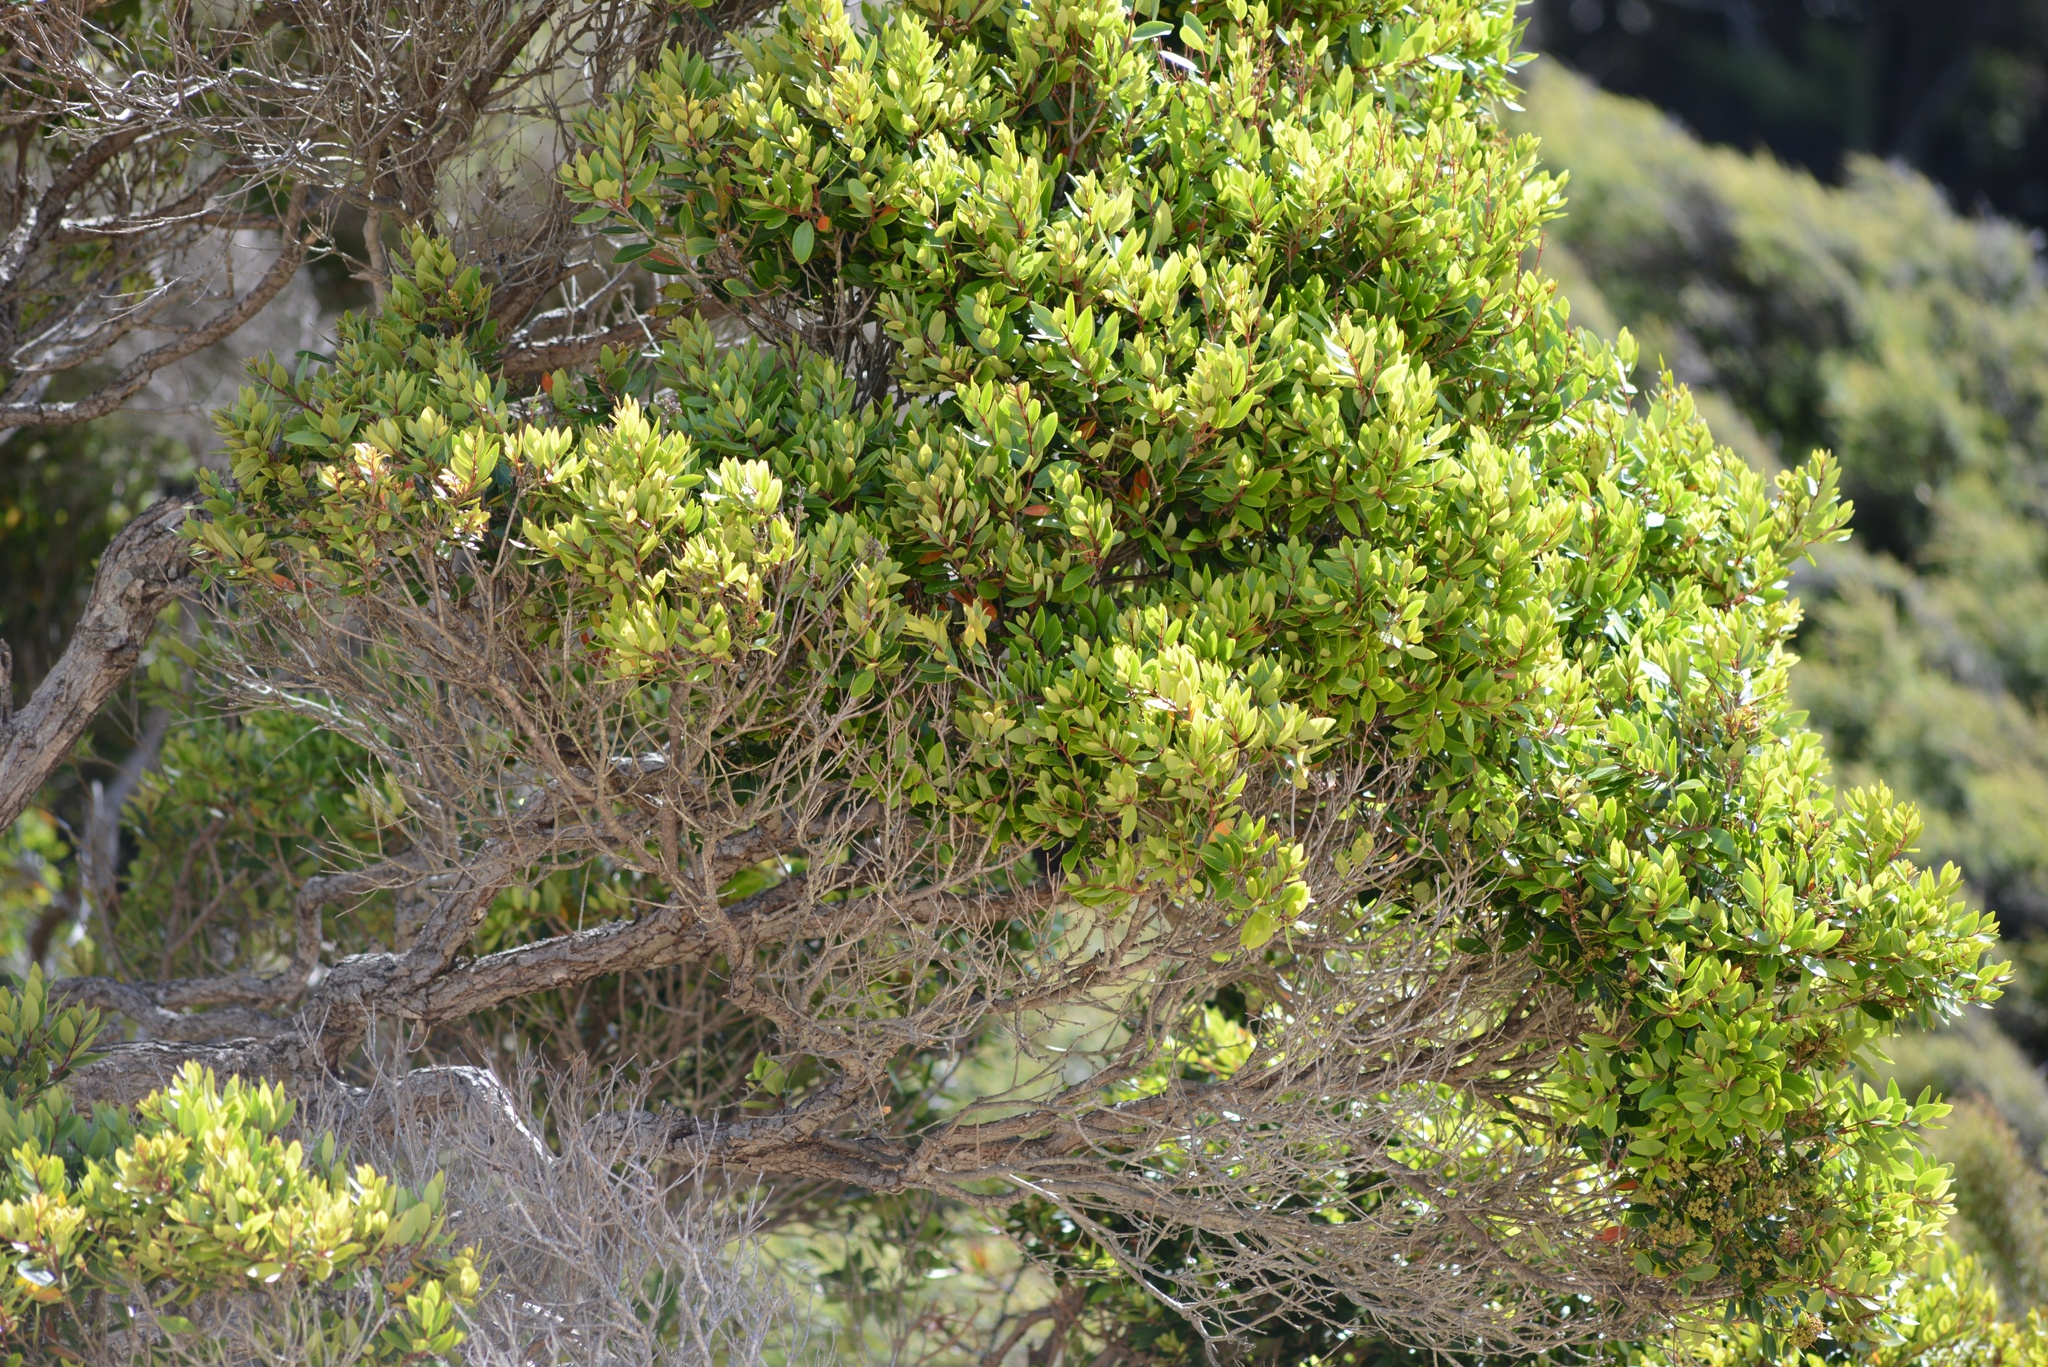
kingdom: Plantae
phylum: Tracheophyta
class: Magnoliopsida
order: Myrtales
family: Myrtaceae
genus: Metrosideros
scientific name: Metrosideros robusta
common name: Northern rata
